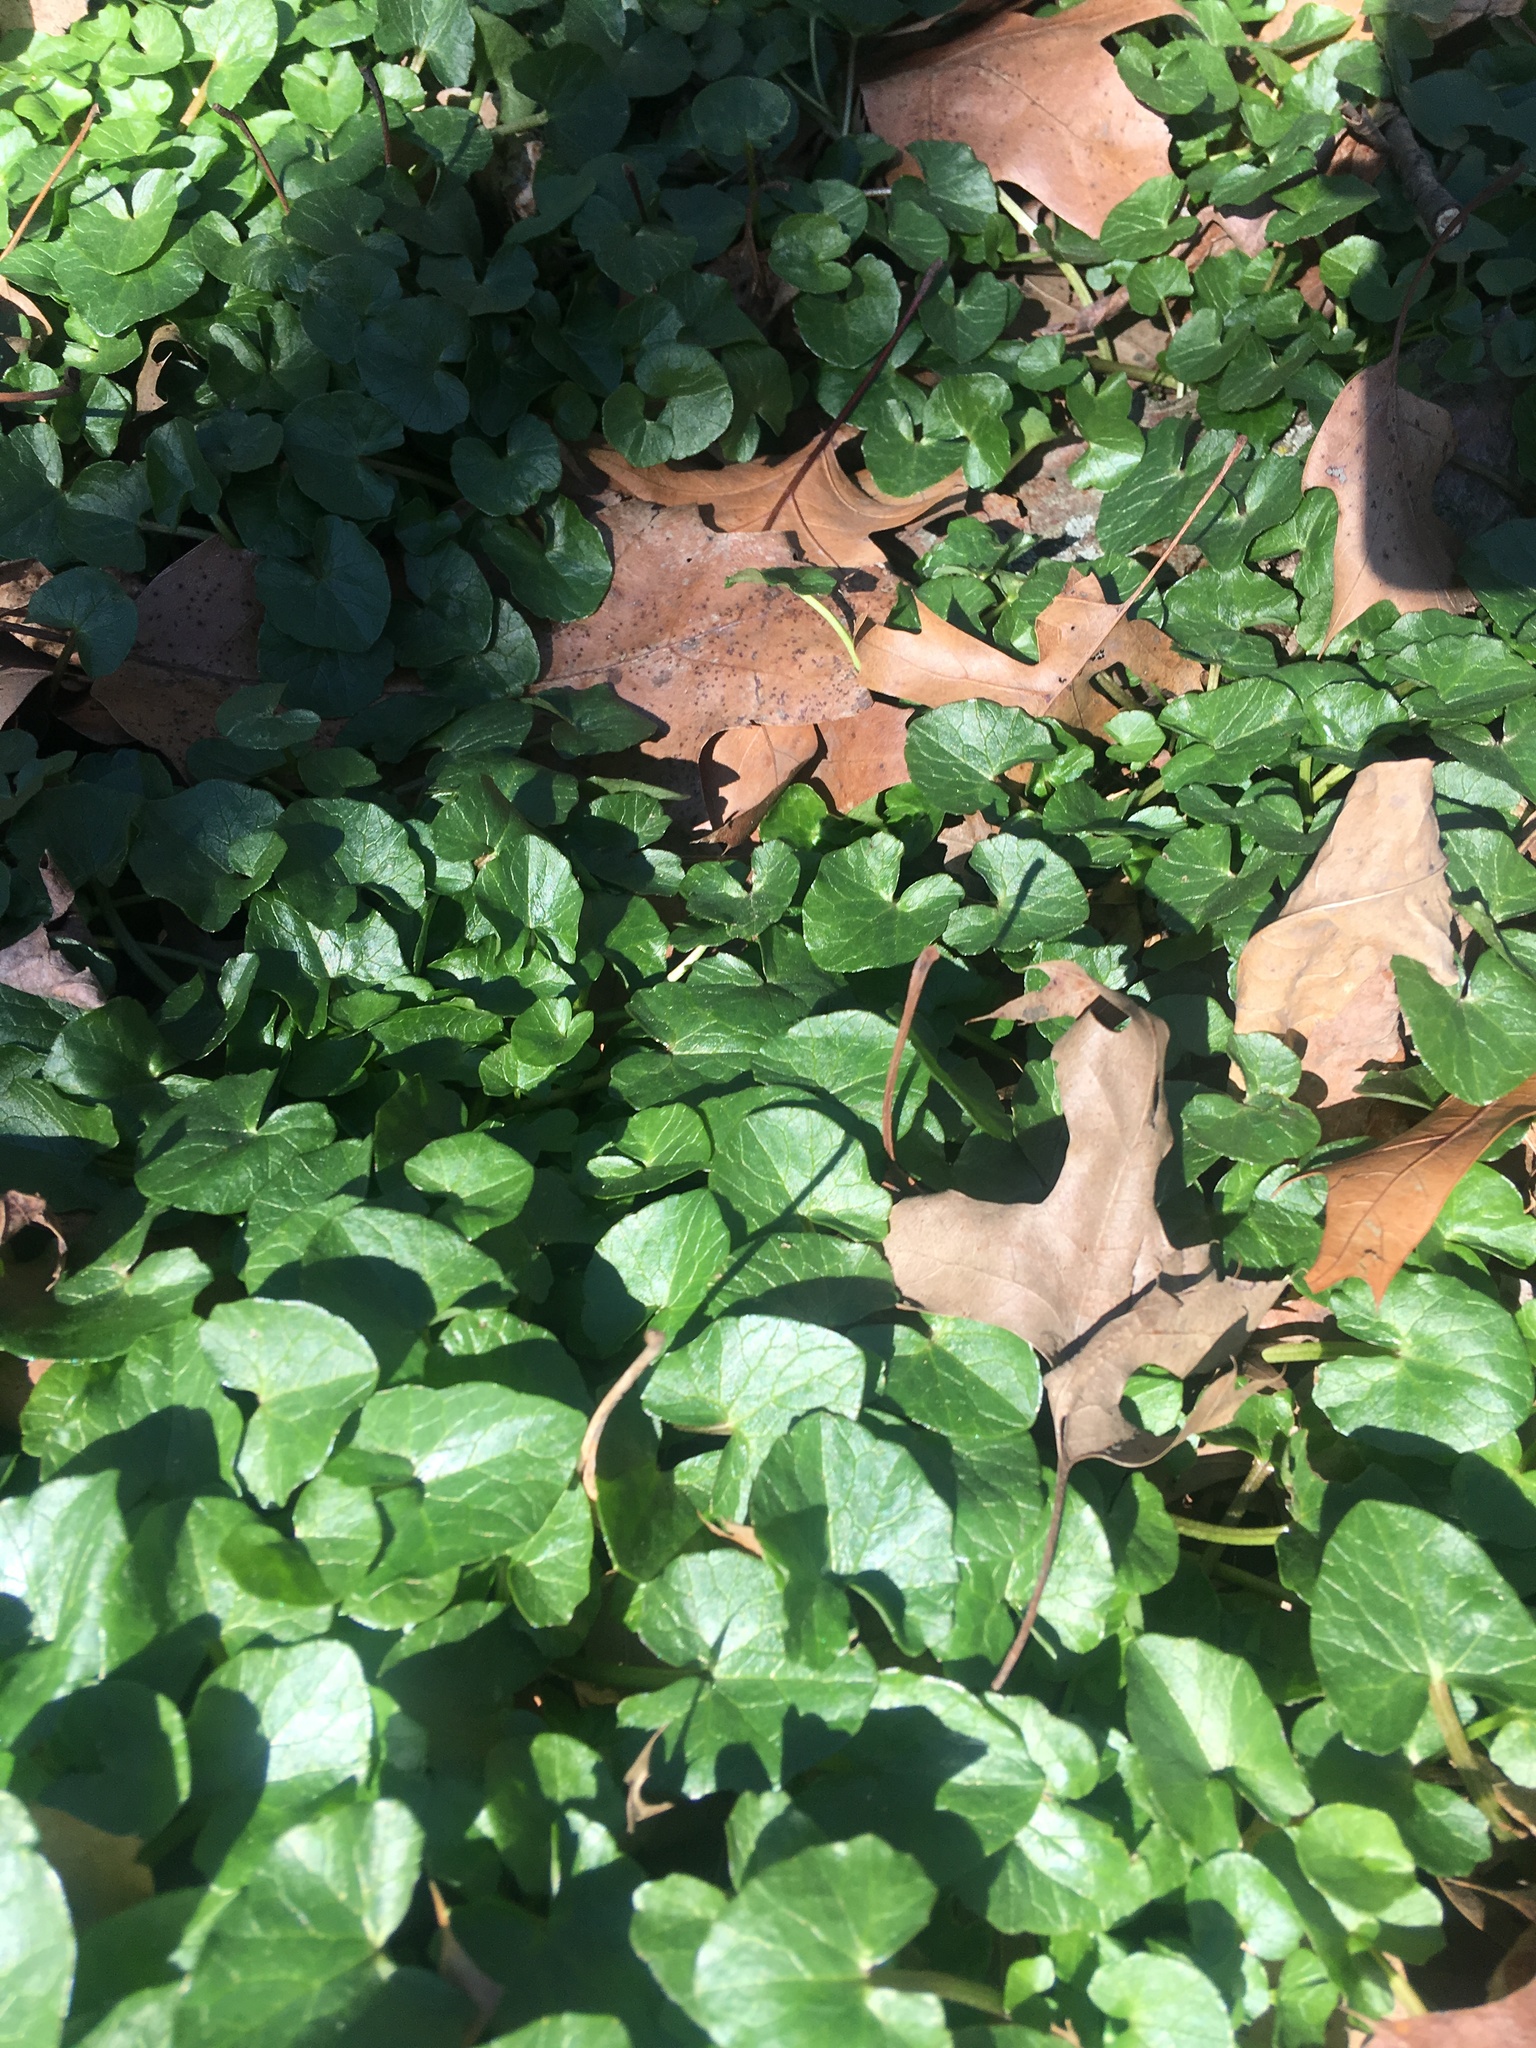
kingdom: Plantae
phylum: Tracheophyta
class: Magnoliopsida
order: Ranunculales
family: Ranunculaceae
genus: Ficaria
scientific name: Ficaria verna
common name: Lesser celandine
